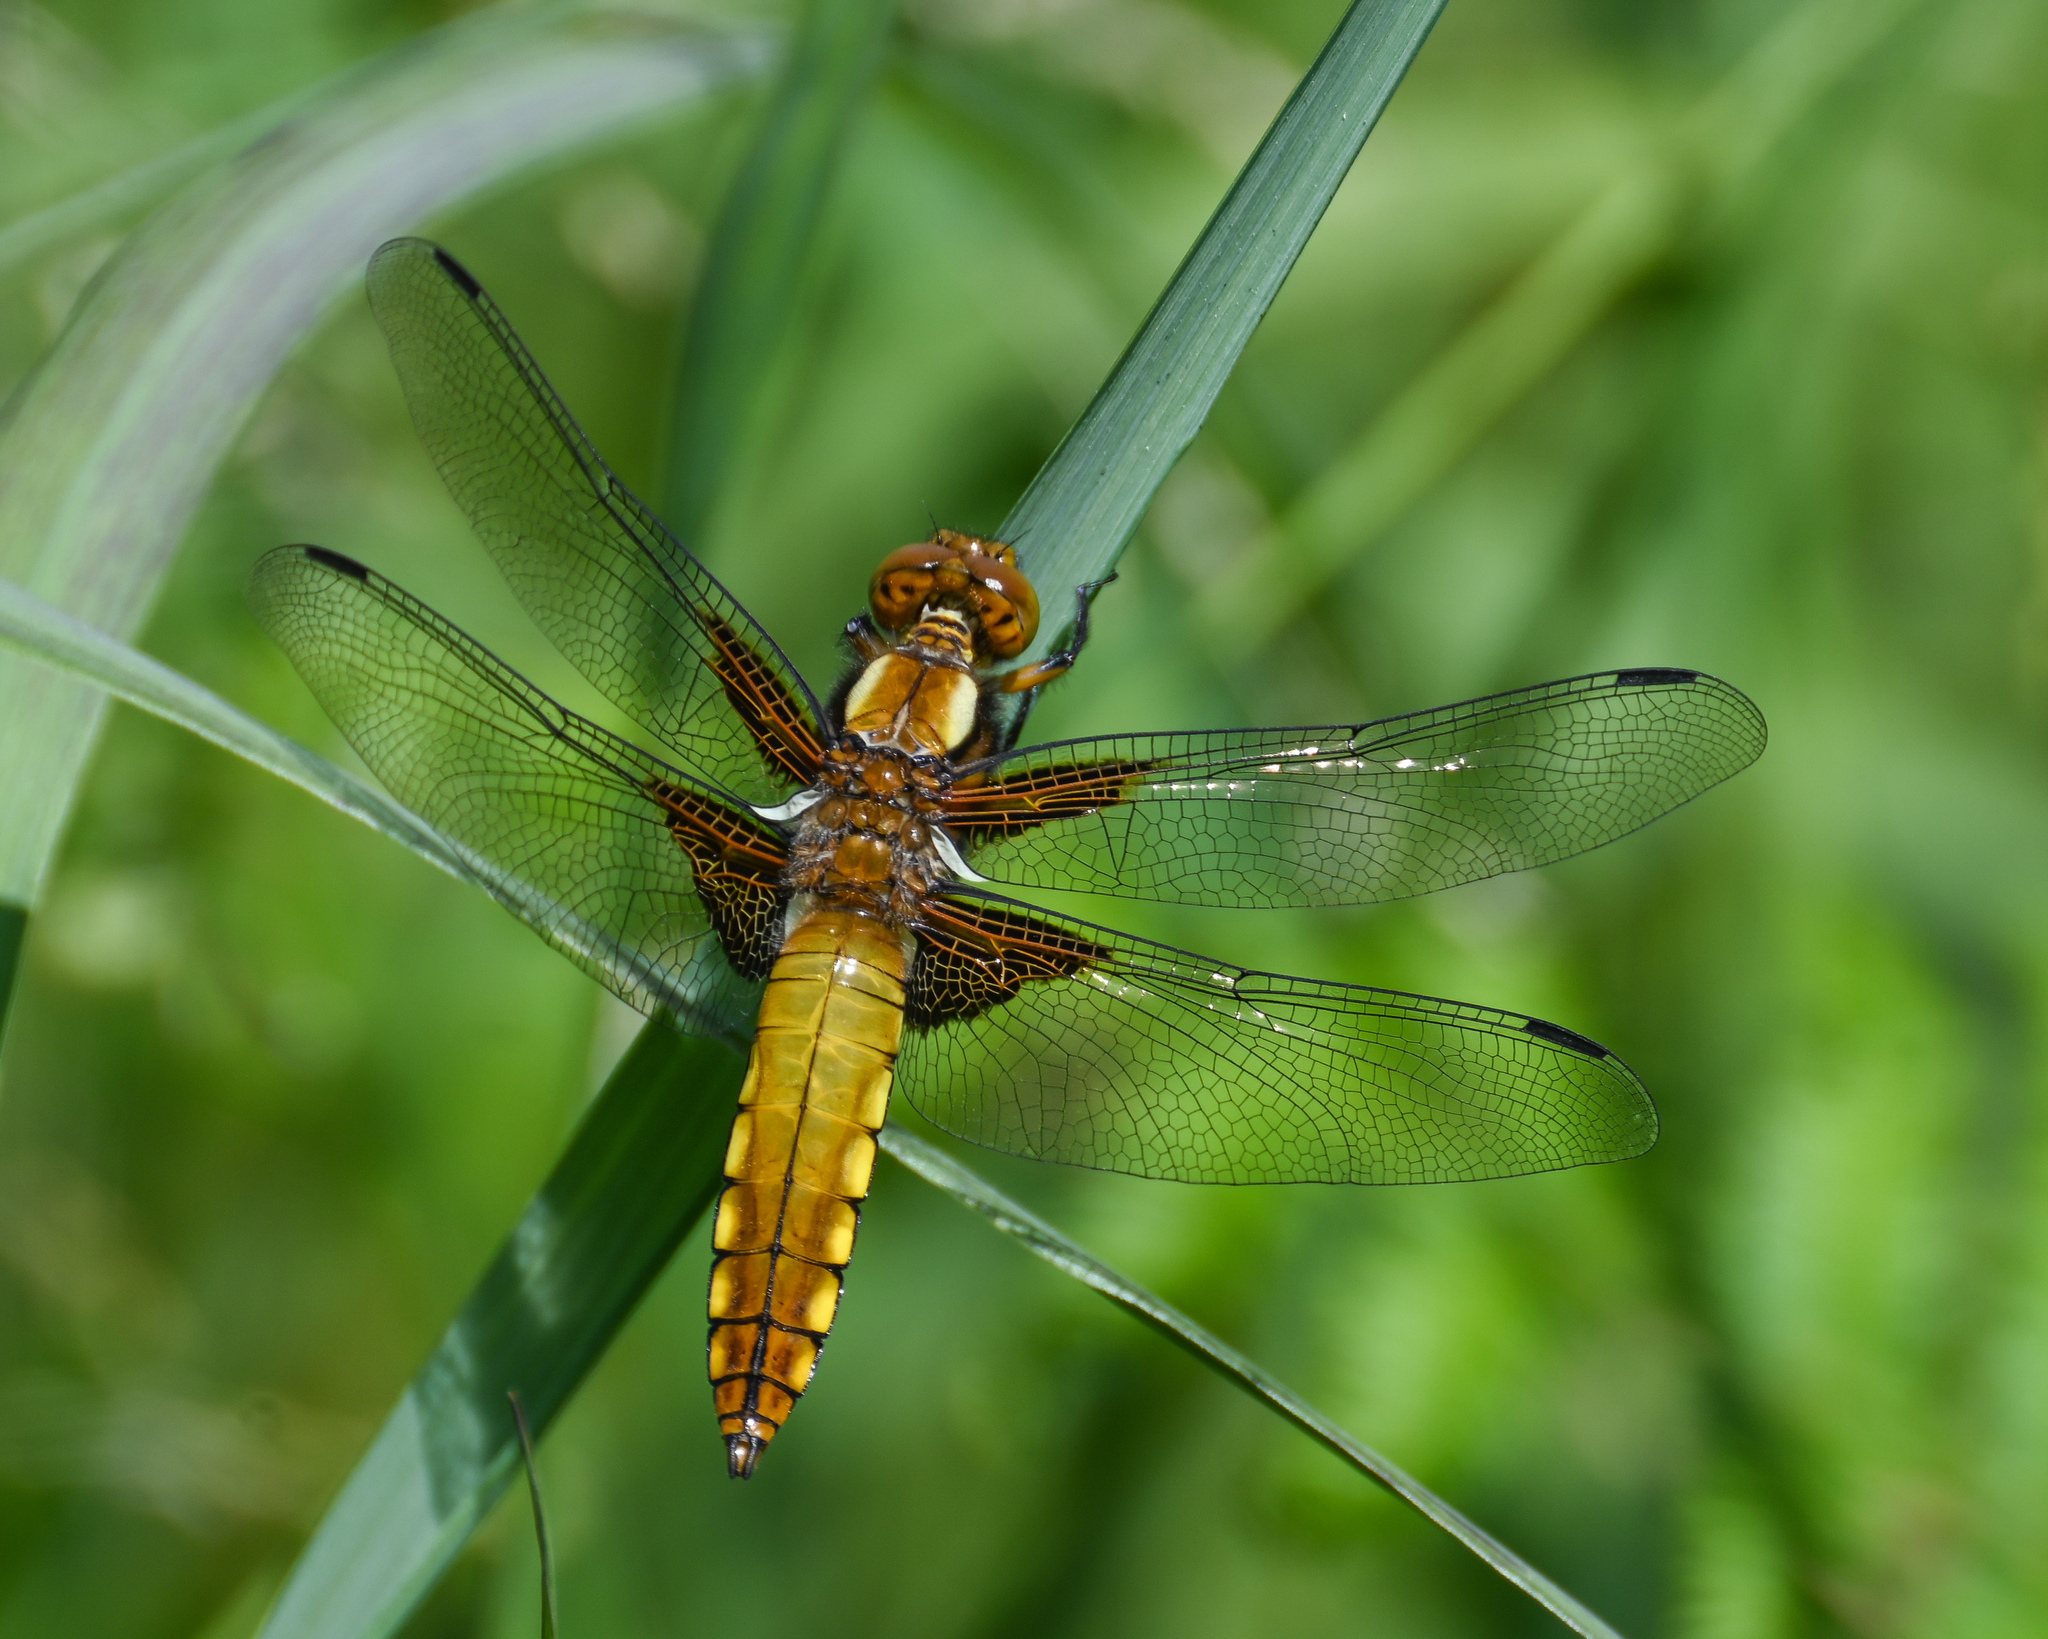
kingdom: Animalia
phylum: Arthropoda
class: Insecta
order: Odonata
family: Libellulidae
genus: Libellula
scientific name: Libellula depressa
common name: Broad-bodied chaser
